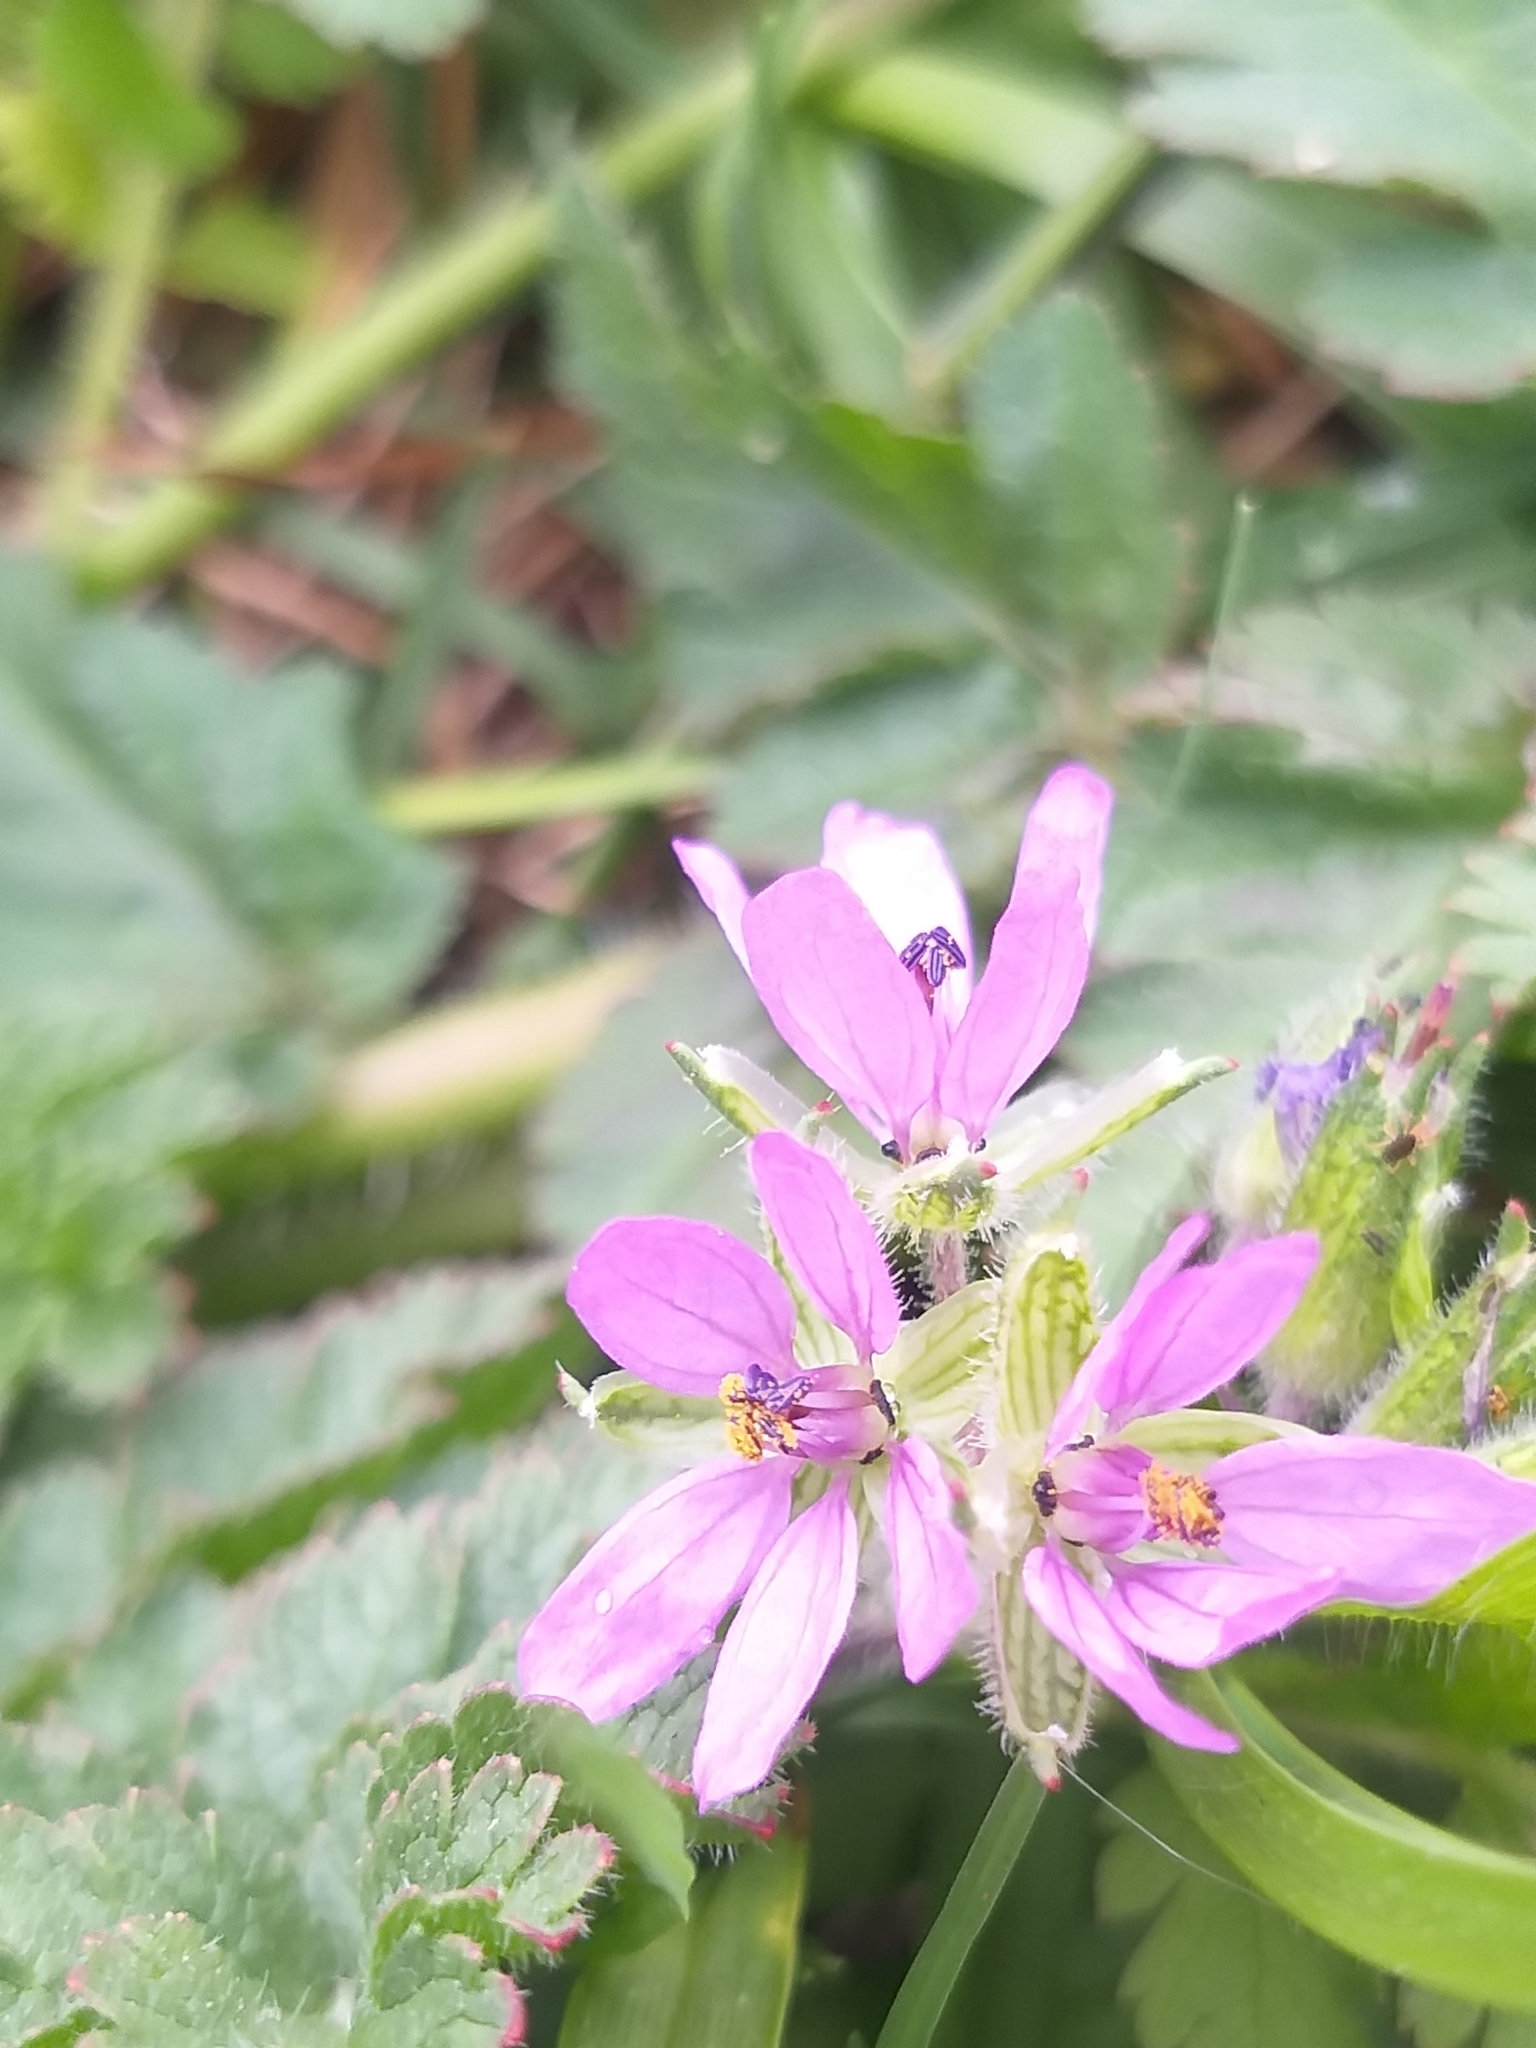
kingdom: Plantae
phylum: Tracheophyta
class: Magnoliopsida
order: Geraniales
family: Geraniaceae
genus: Erodium
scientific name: Erodium moschatum
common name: Musk stork's-bill
